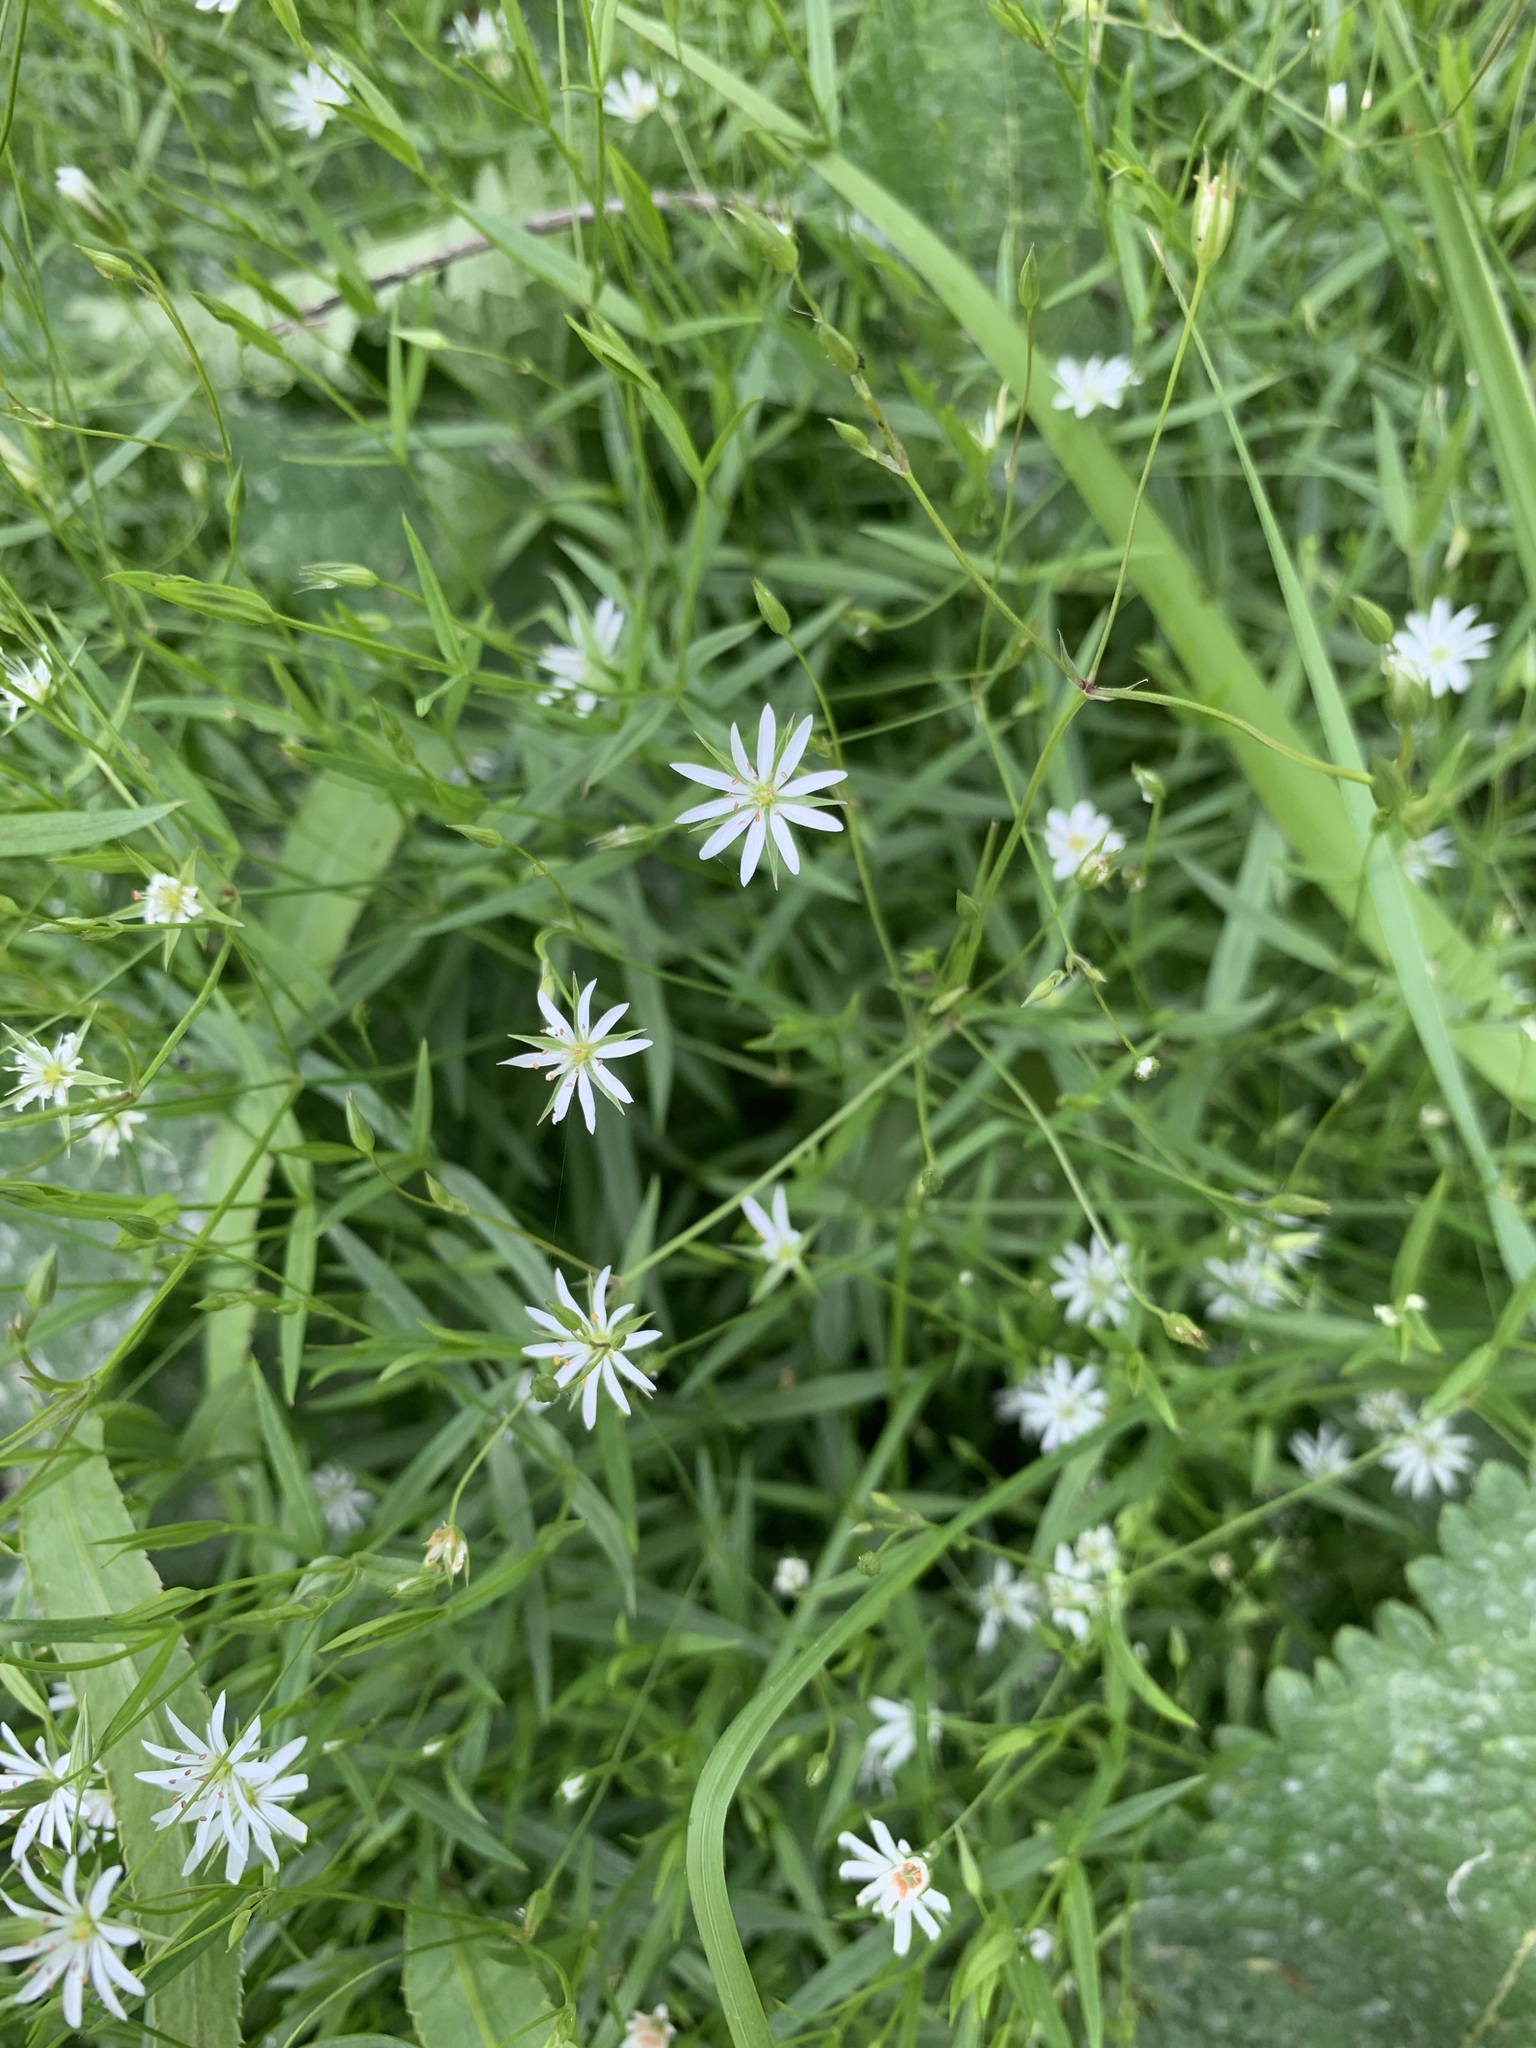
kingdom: Plantae
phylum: Tracheophyta
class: Magnoliopsida
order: Caryophyllales
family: Caryophyllaceae
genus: Stellaria
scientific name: Stellaria graminea
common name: Grass-like starwort
